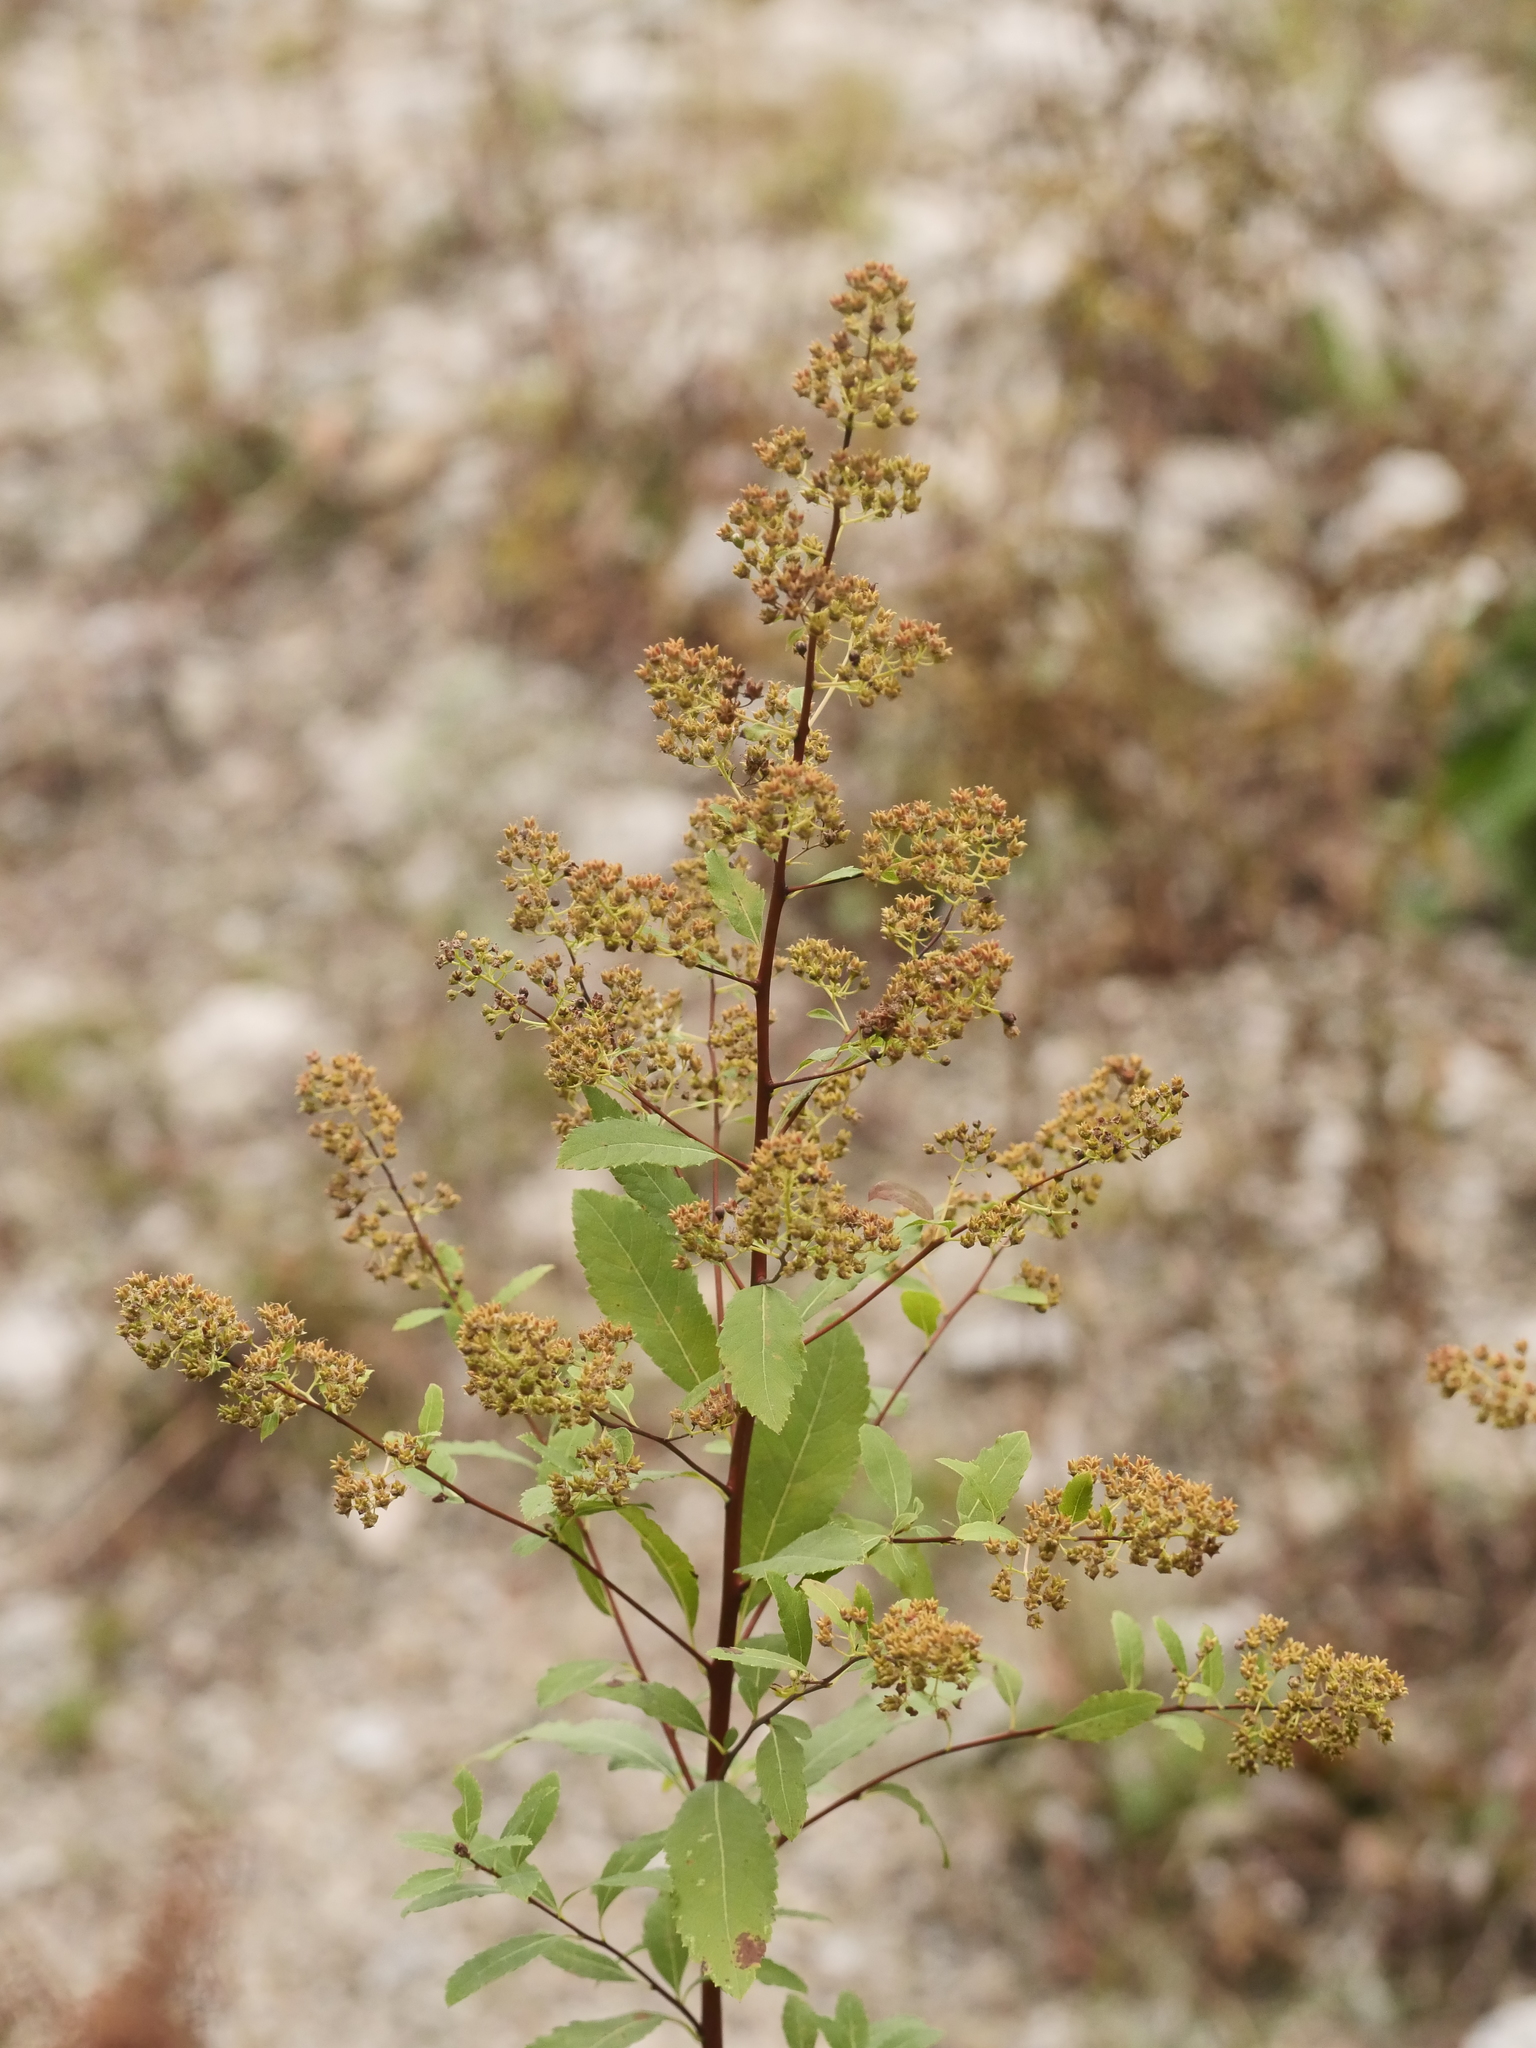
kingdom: Plantae
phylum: Tracheophyta
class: Magnoliopsida
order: Rosales
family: Rosaceae
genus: Spiraea
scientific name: Spiraea alba
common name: Pale bridewort
